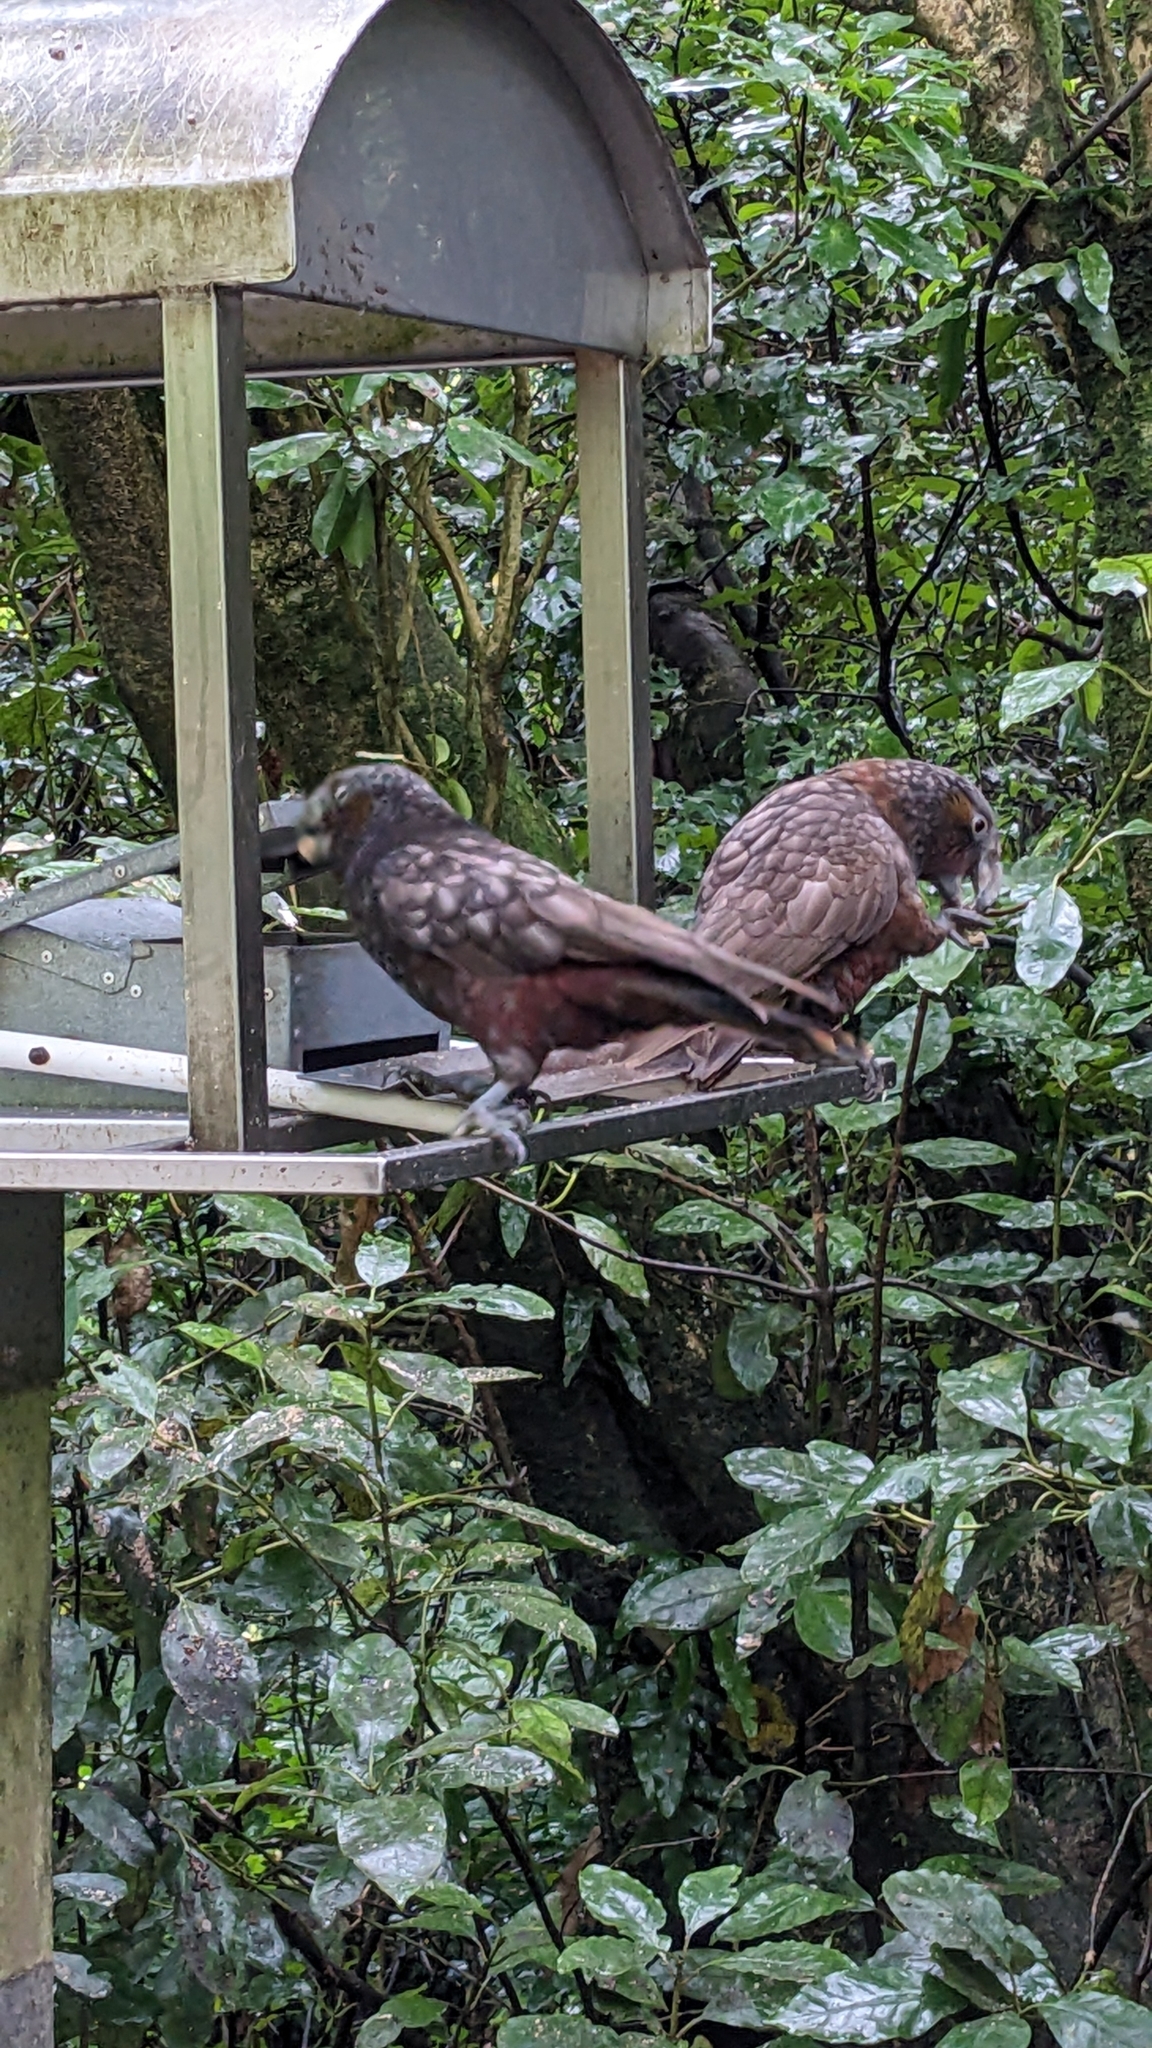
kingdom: Animalia
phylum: Chordata
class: Aves
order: Psittaciformes
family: Psittacidae
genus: Nestor
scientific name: Nestor meridionalis
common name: New zealand kaka
